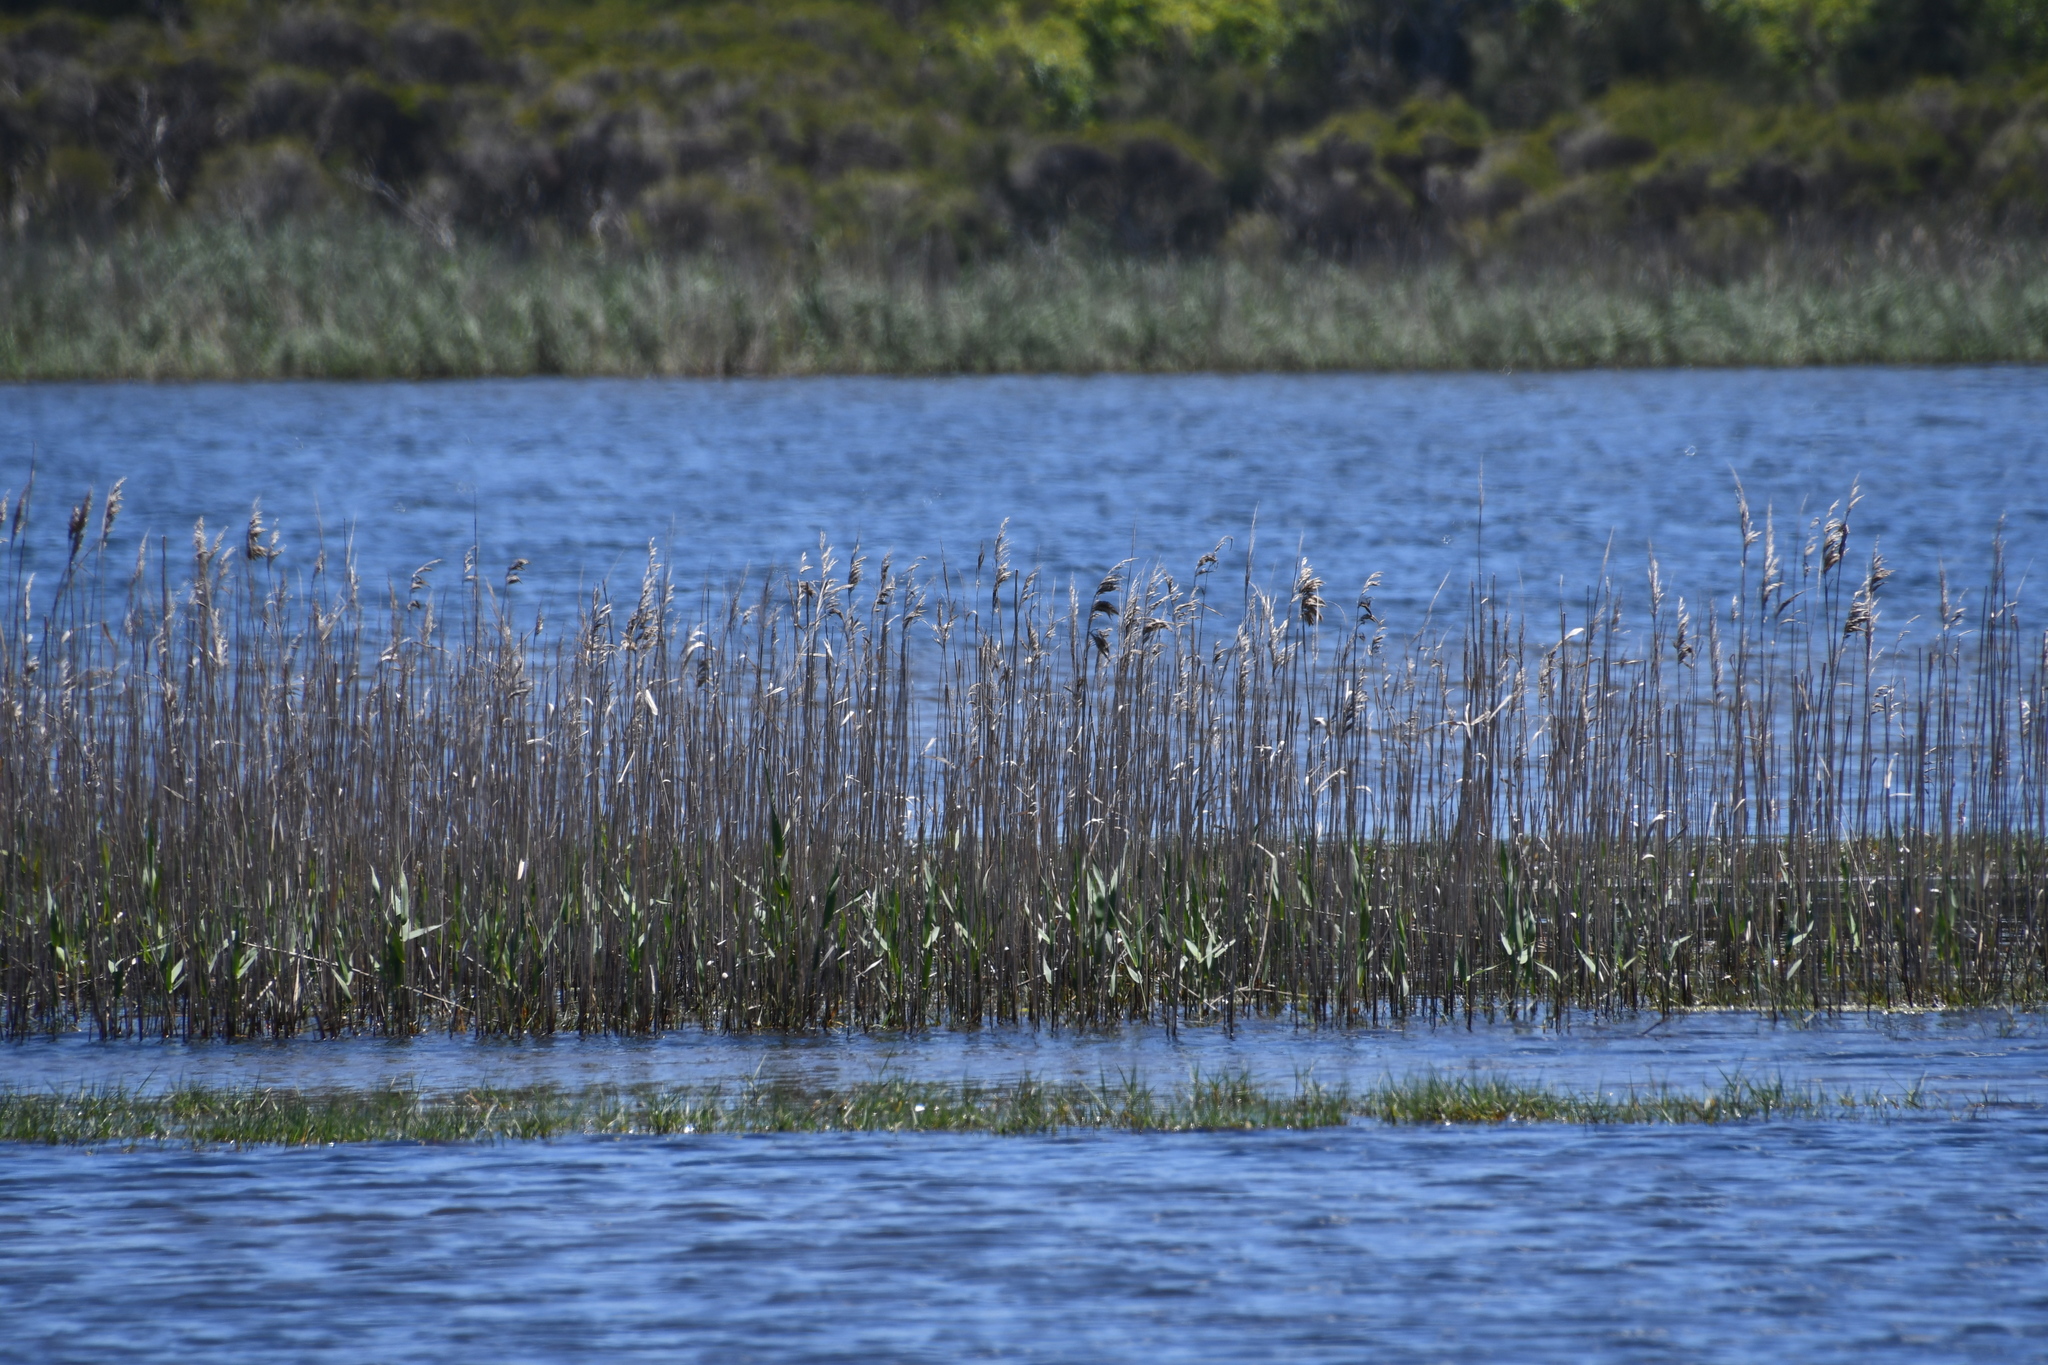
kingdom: Plantae
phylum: Tracheophyta
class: Liliopsida
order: Poales
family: Poaceae
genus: Phragmites
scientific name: Phragmites australis
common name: Common reed
